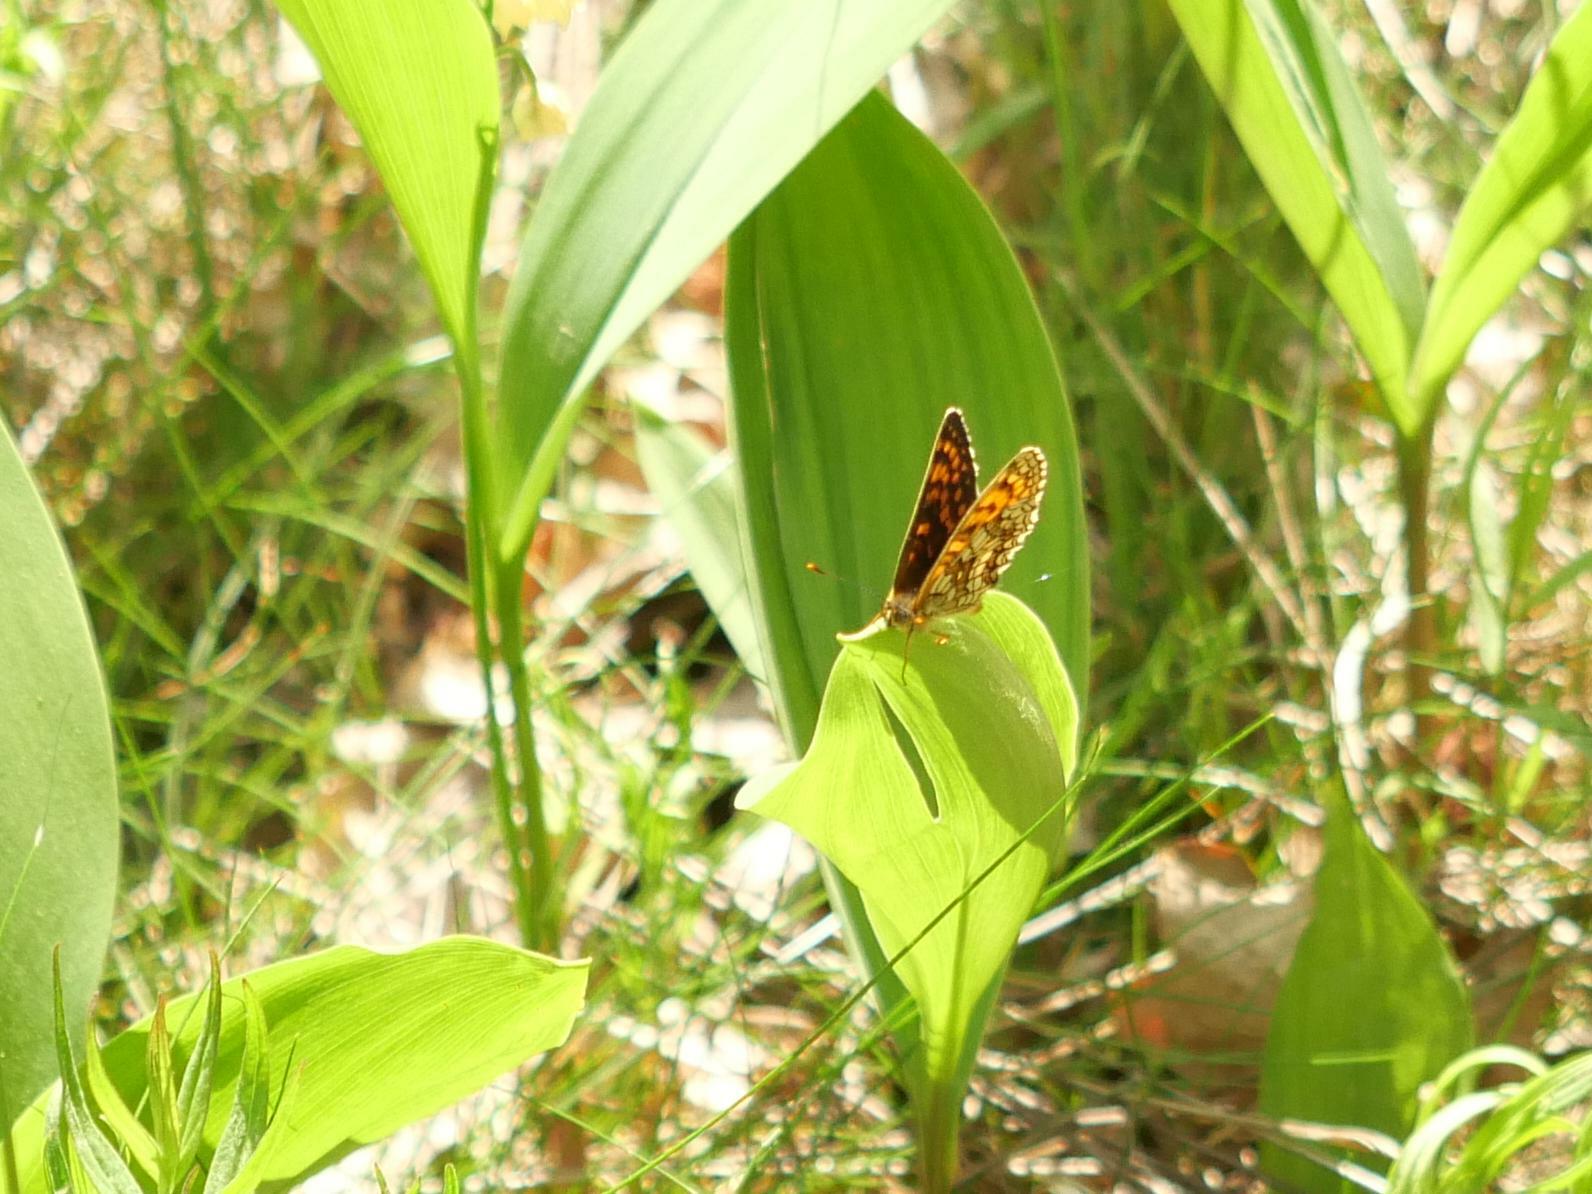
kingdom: Animalia
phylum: Arthropoda
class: Insecta
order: Lepidoptera
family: Nymphalidae
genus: Melitaea
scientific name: Melitaea athalia
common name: Heath fritillary
